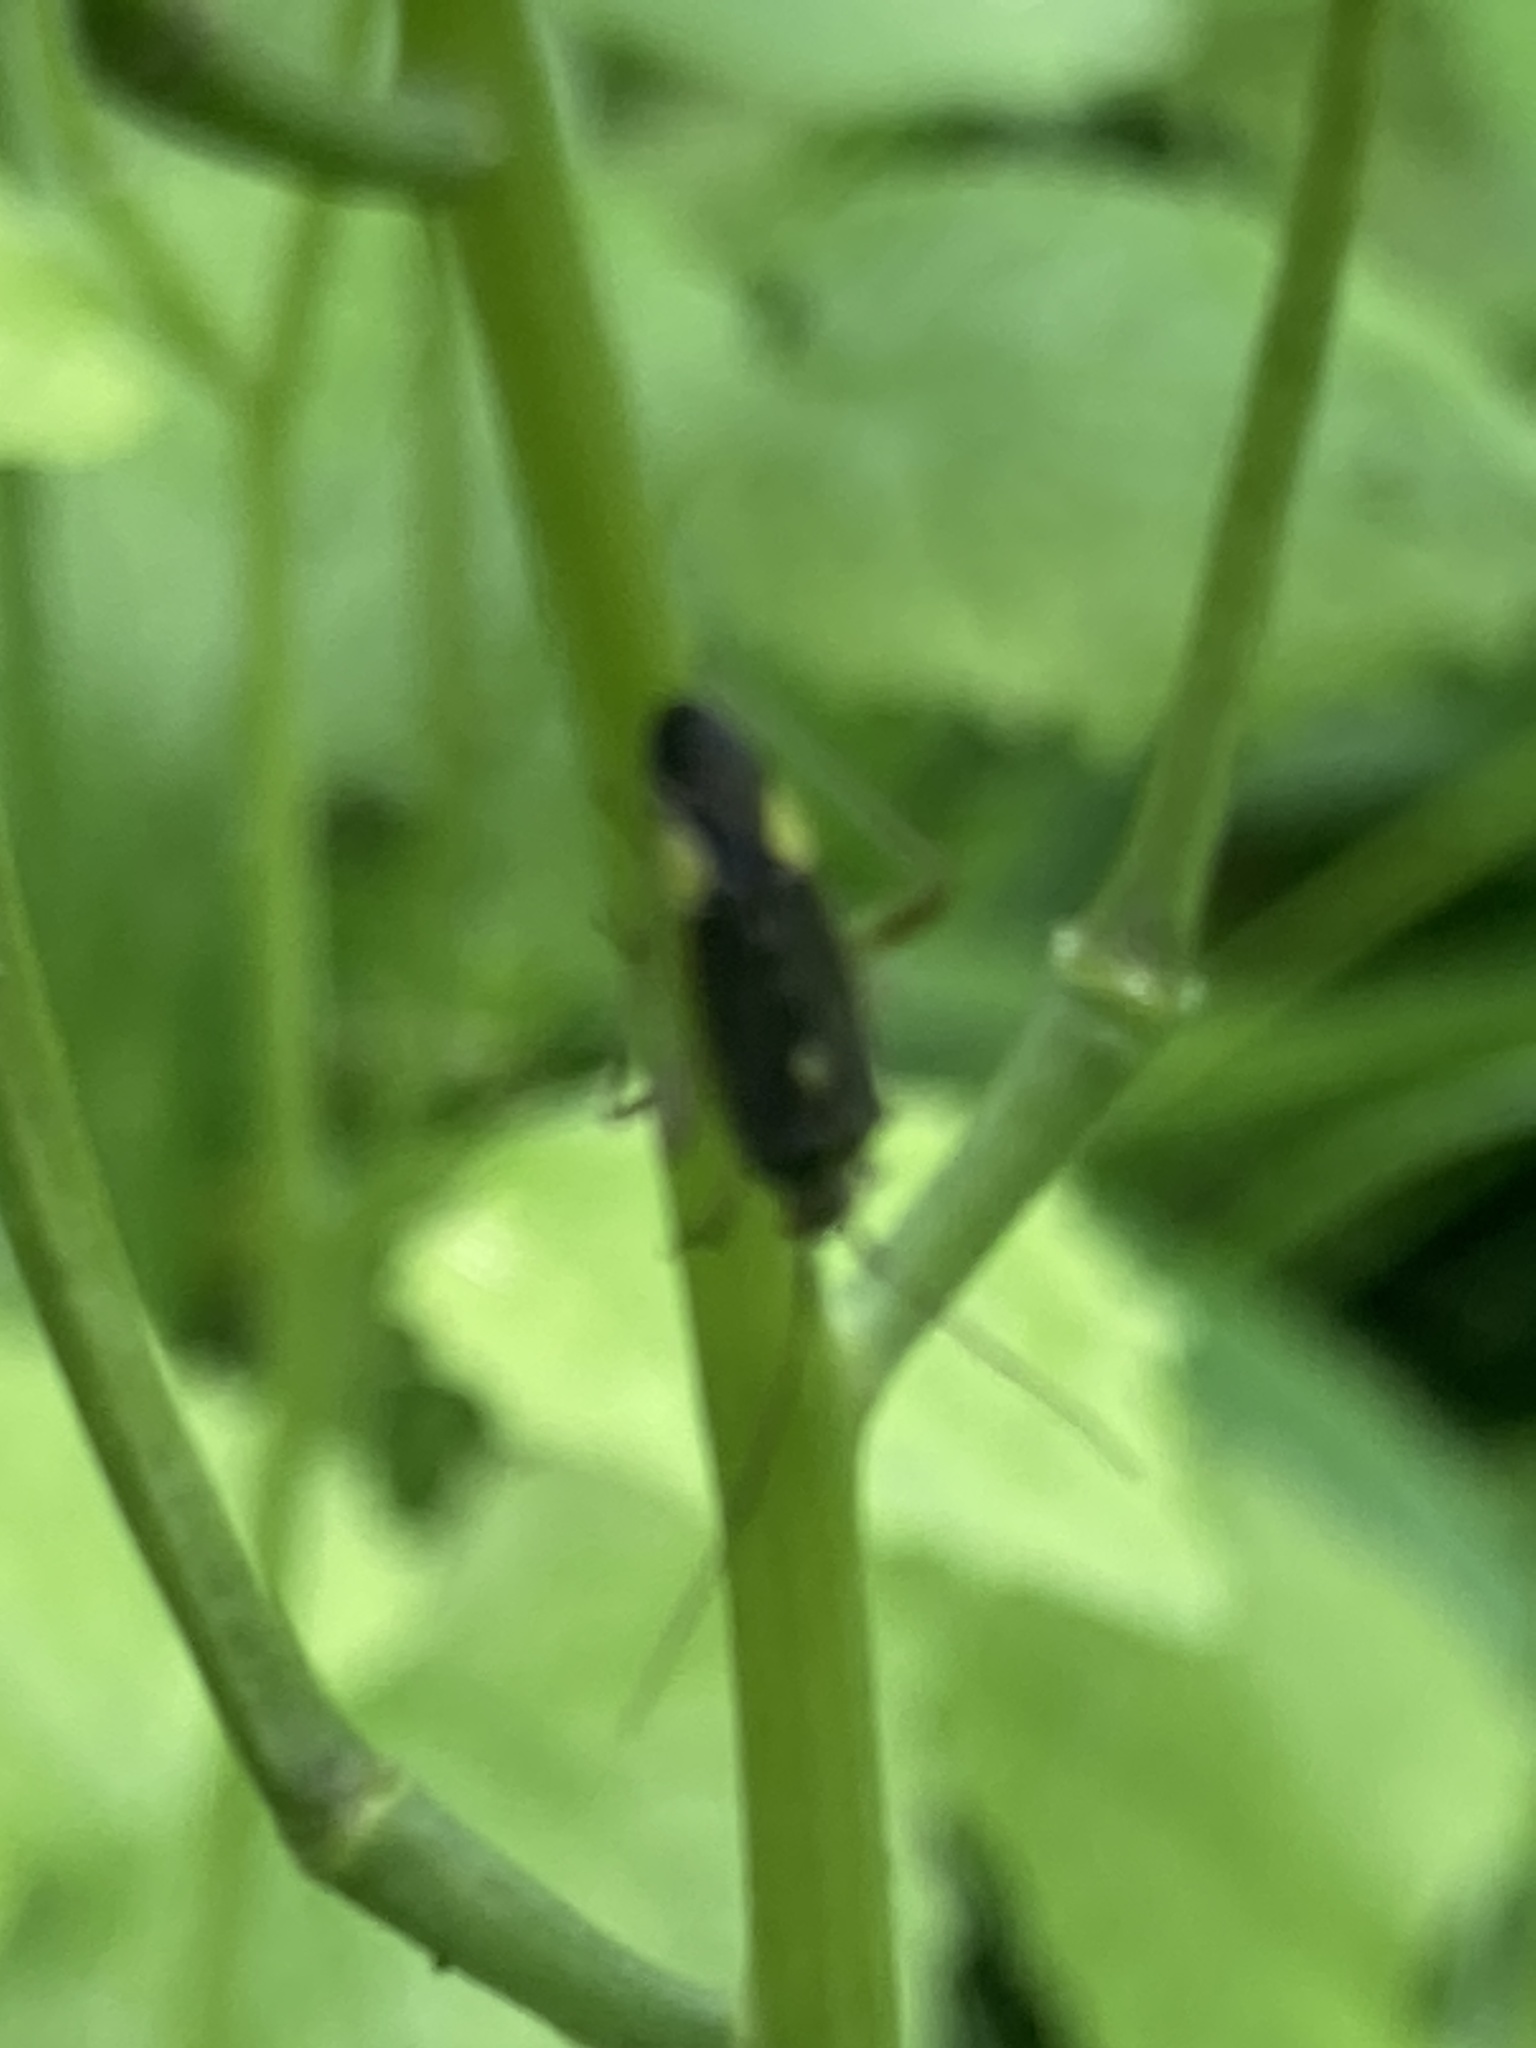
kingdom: Animalia
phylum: Arthropoda
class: Insecta
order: Hemiptera
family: Miridae
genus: Closterotomus
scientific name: Closterotomus trivialis
